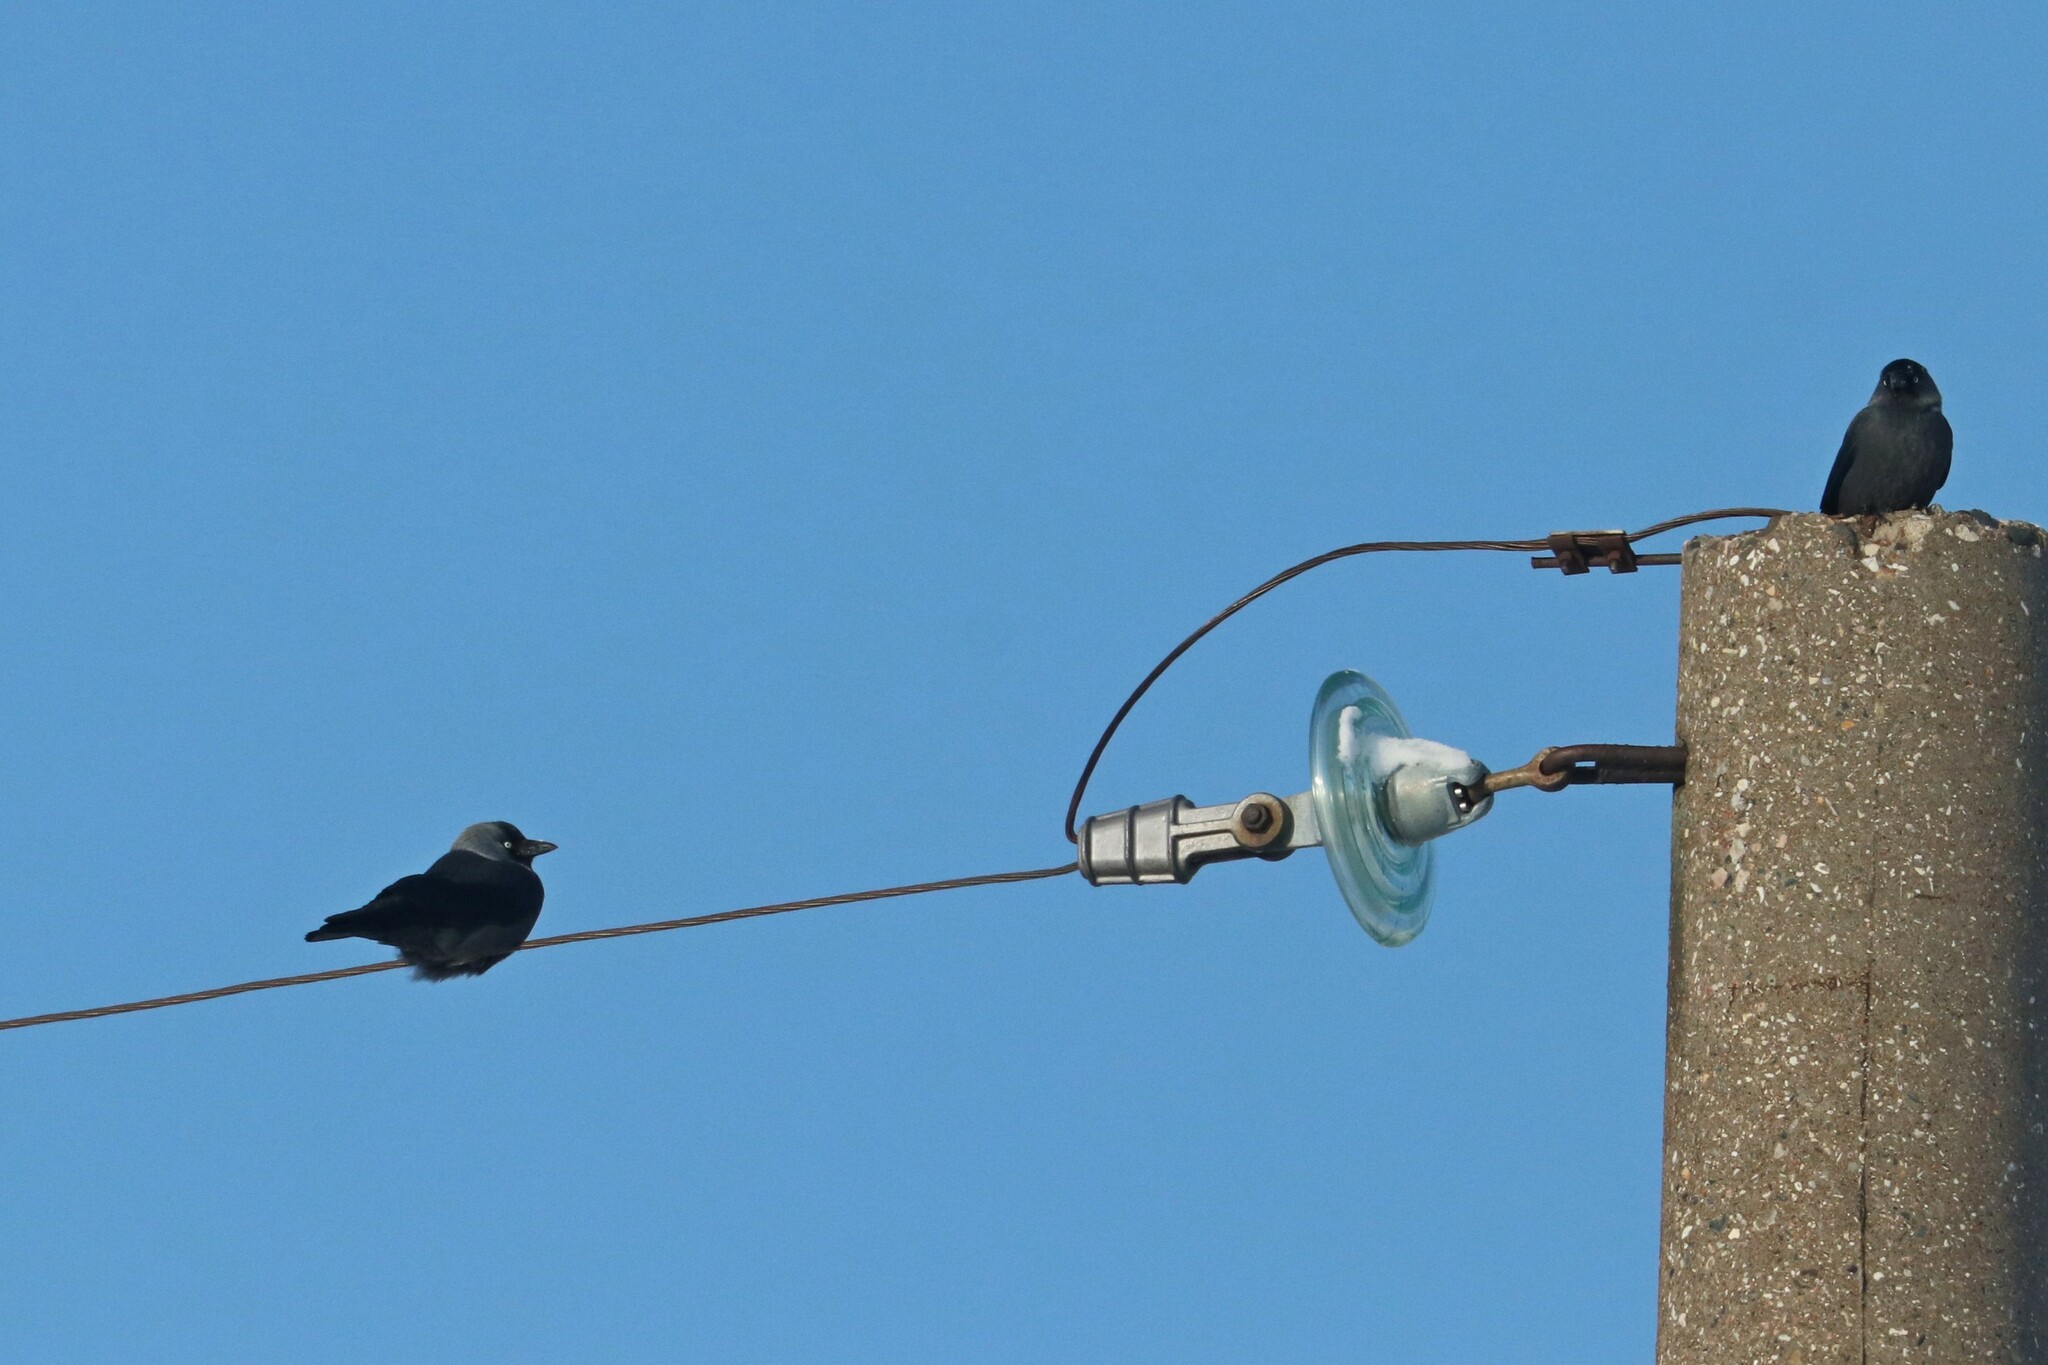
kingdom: Animalia
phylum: Chordata
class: Aves
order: Passeriformes
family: Corvidae
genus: Coloeus
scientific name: Coloeus monedula
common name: Western jackdaw
